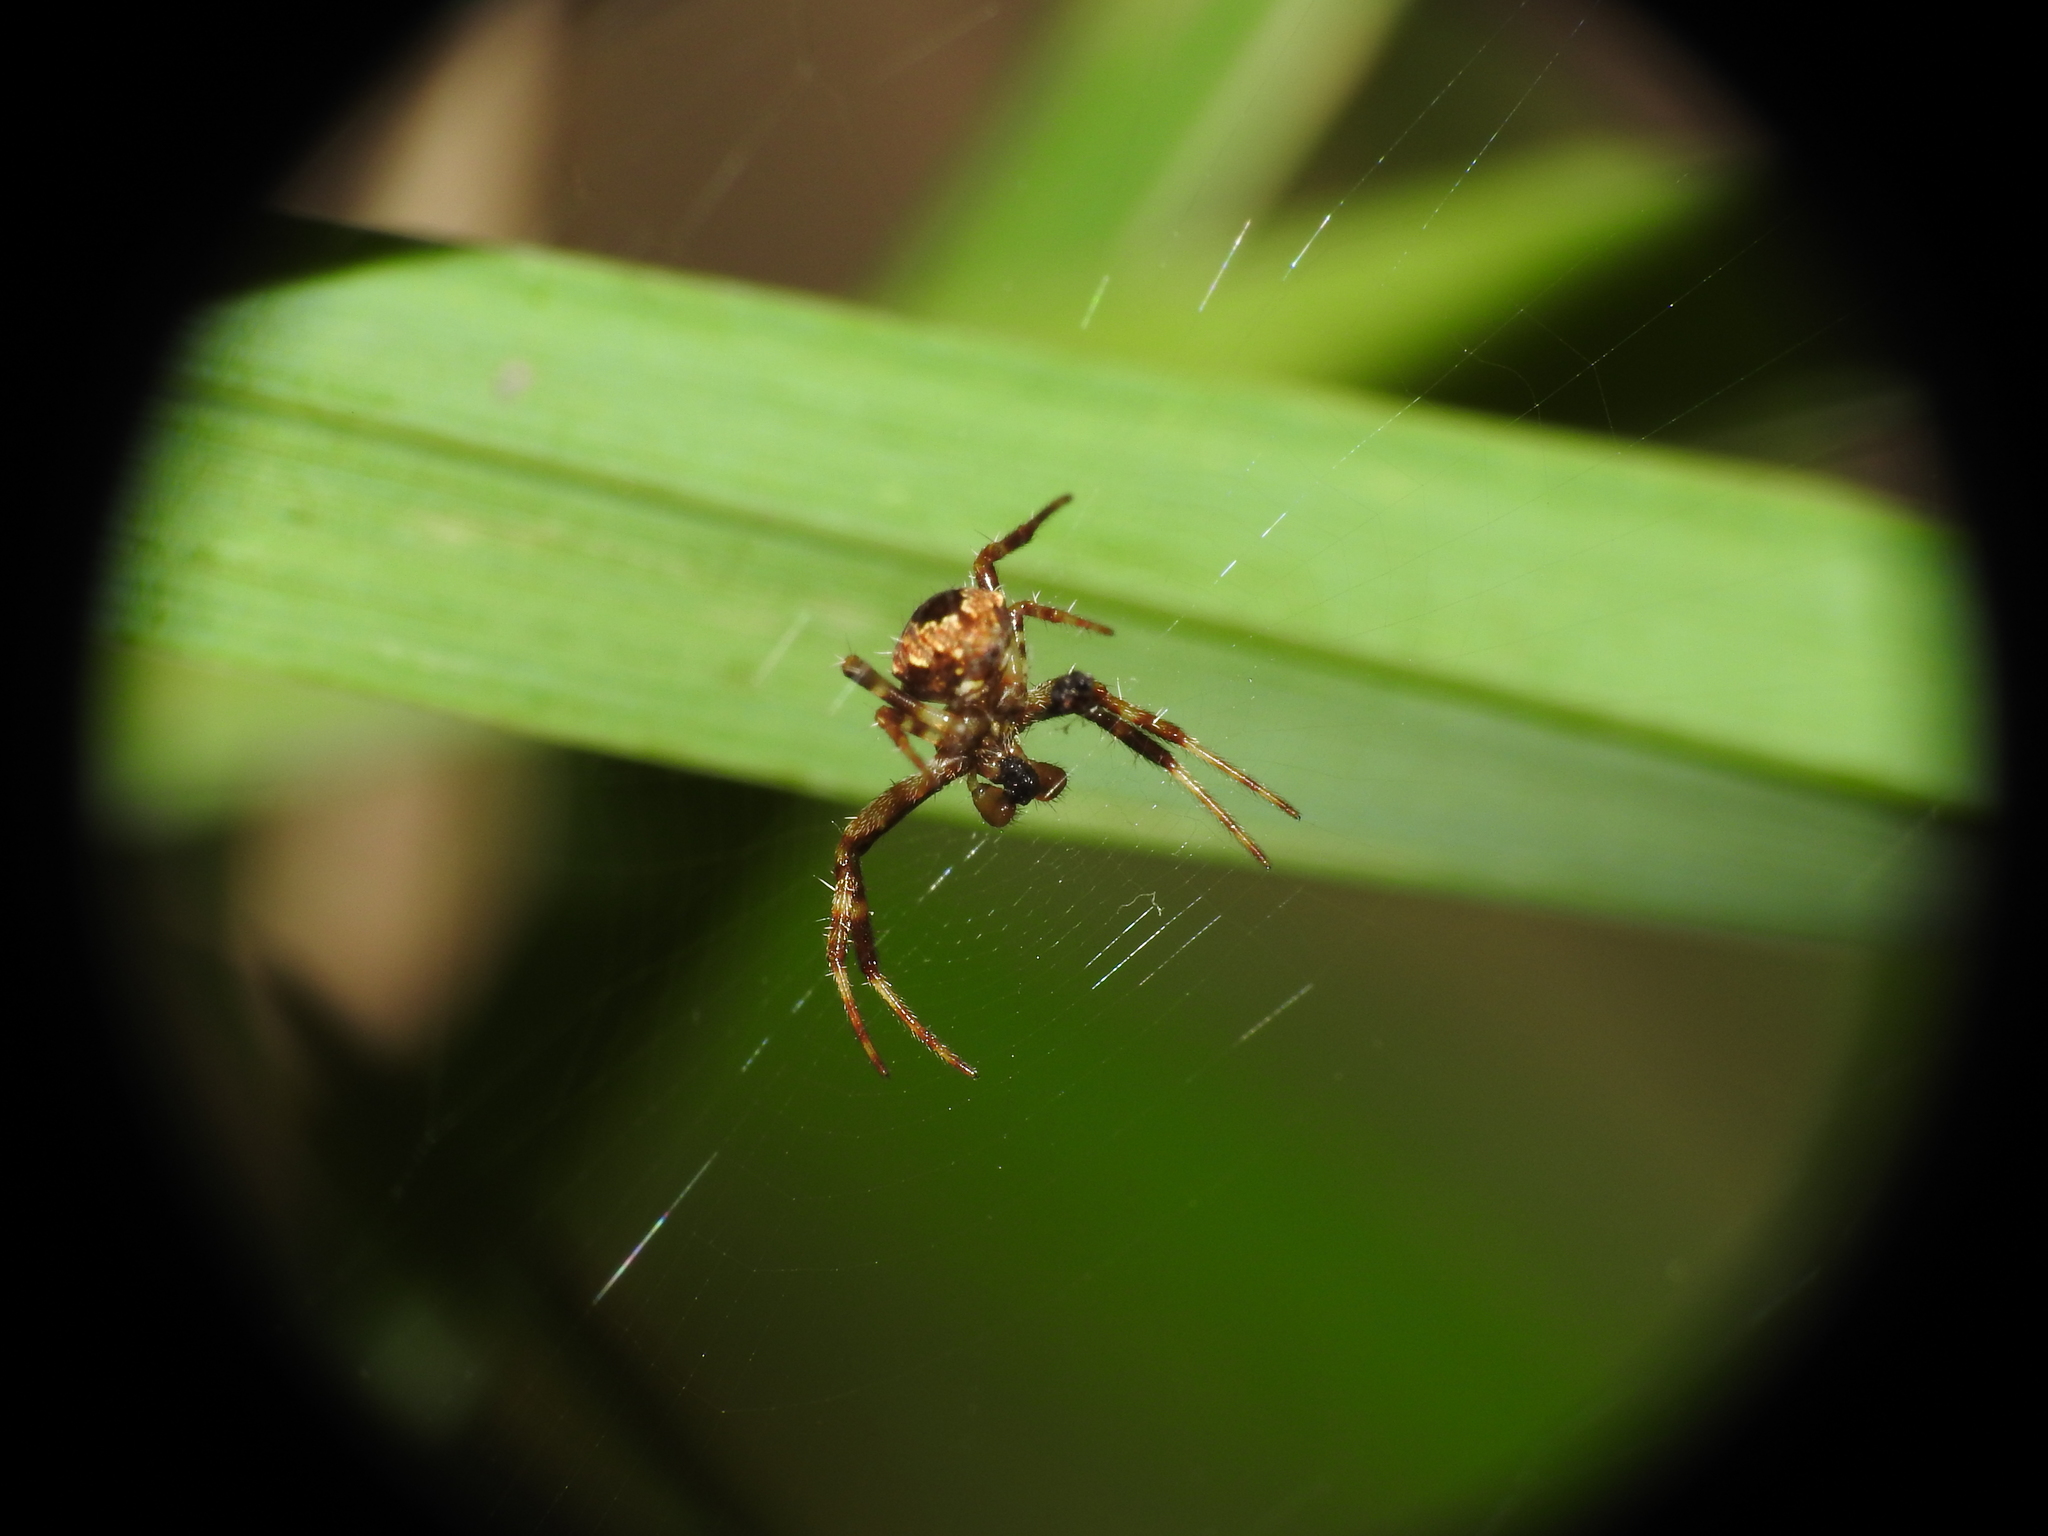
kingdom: Animalia
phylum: Arthropoda
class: Arachnida
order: Araneae
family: Araneidae
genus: Gea
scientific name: Gea heptagon
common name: Orb weavers
